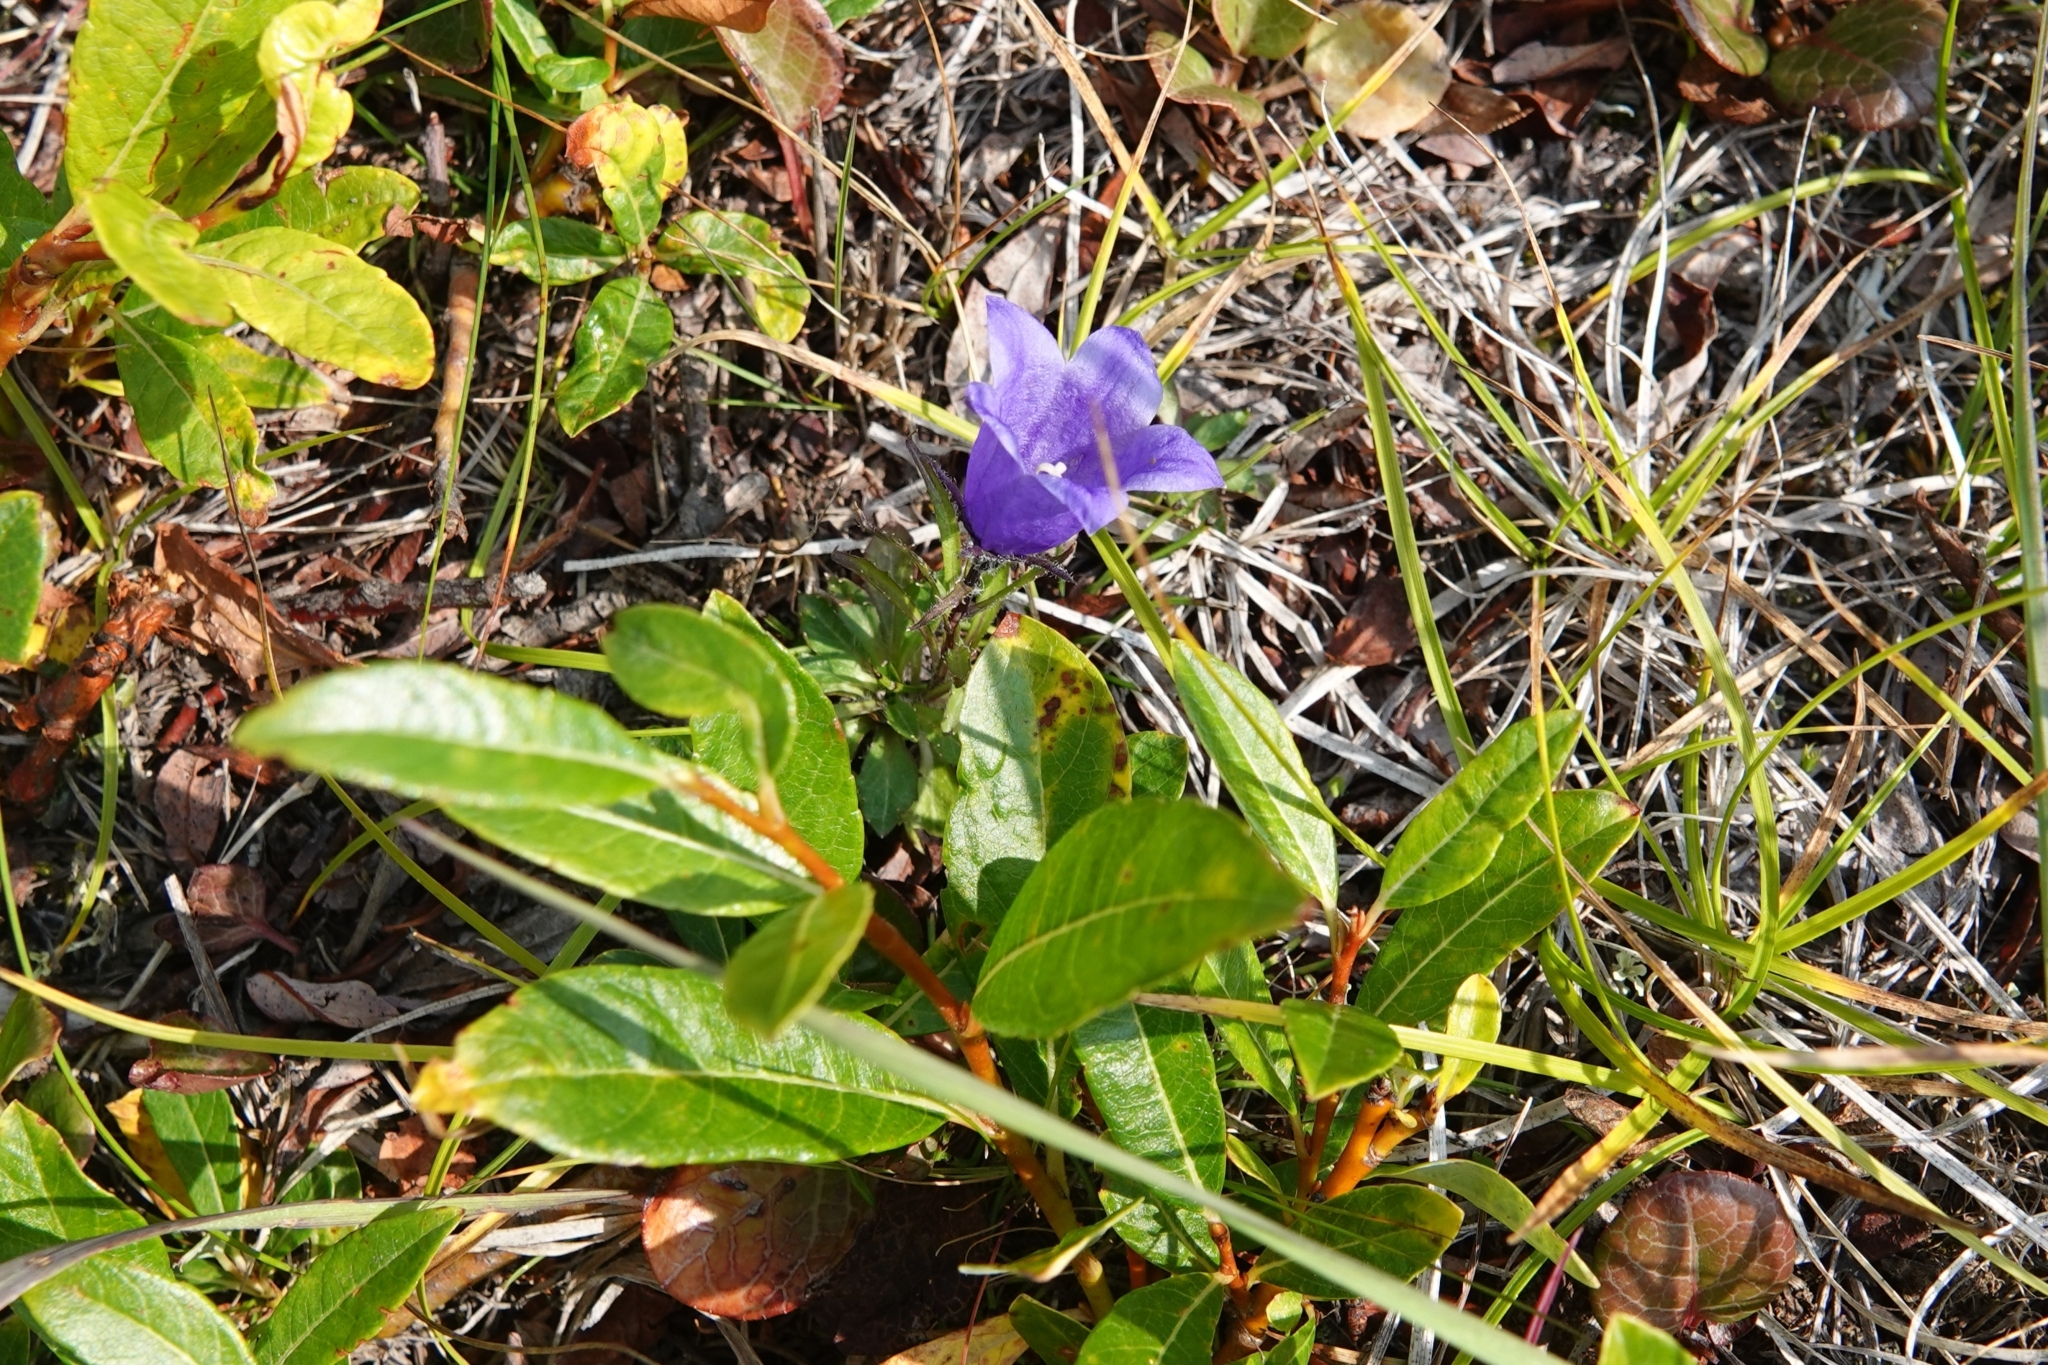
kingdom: Plantae
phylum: Tracheophyta
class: Magnoliopsida
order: Asterales
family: Campanulaceae
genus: Campanula
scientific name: Campanula lasiocarpa
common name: Mountain harebell
